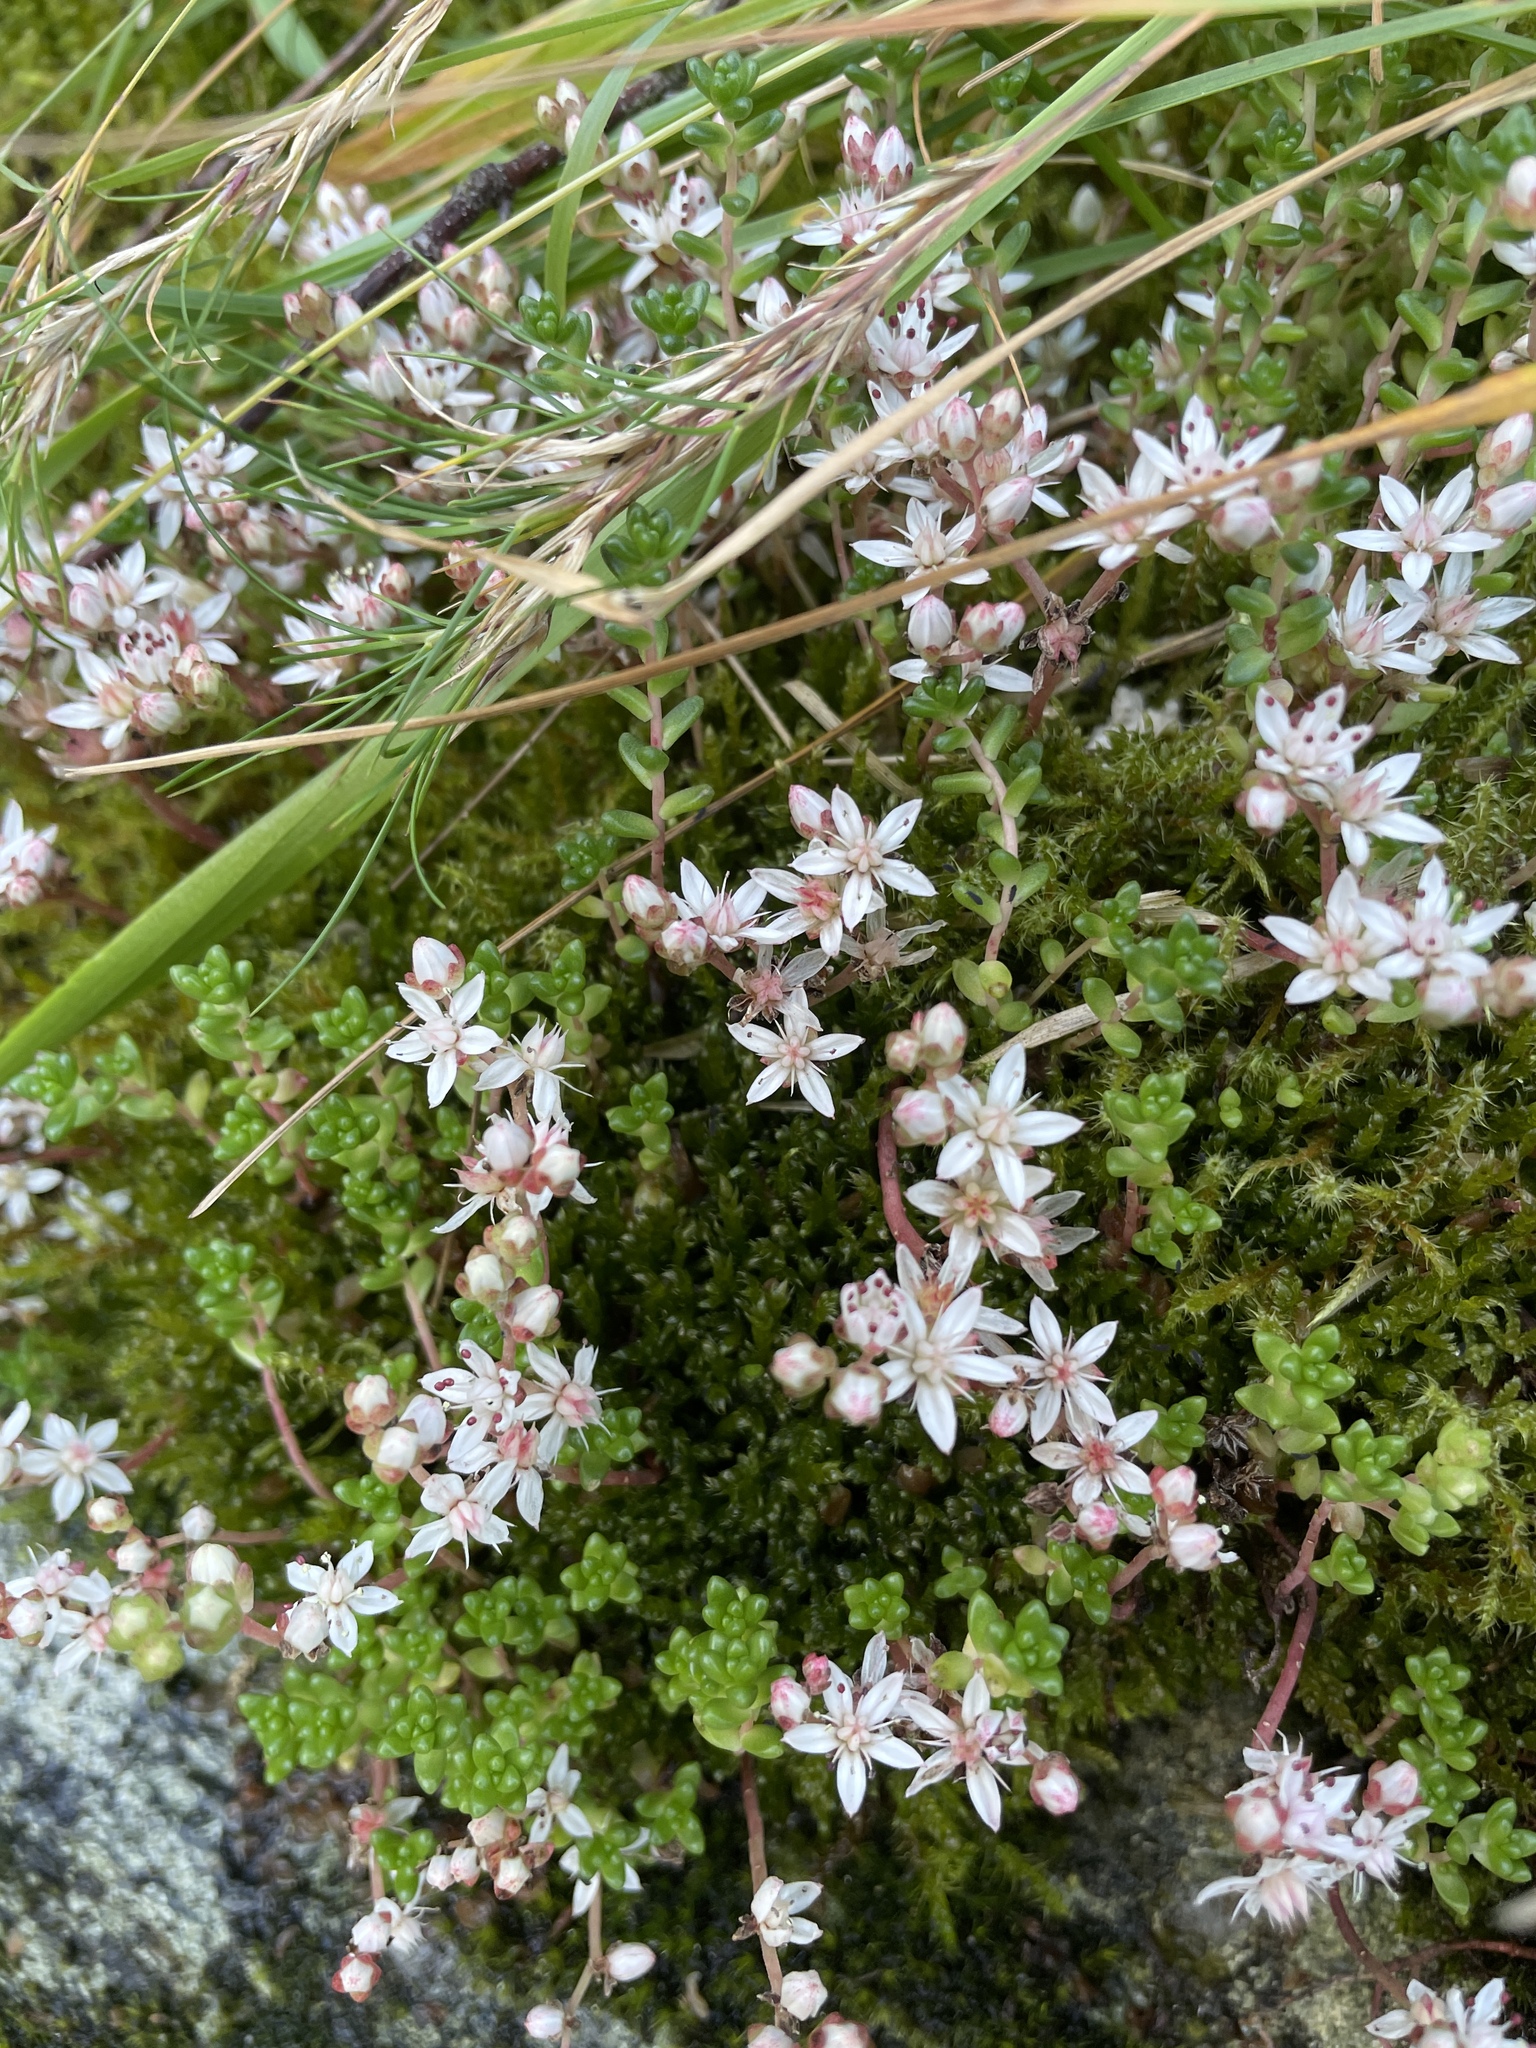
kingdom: Plantae
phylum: Tracheophyta
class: Magnoliopsida
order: Saxifragales
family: Crassulaceae
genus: Sedum
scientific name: Sedum anglicum
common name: English stonecrop
